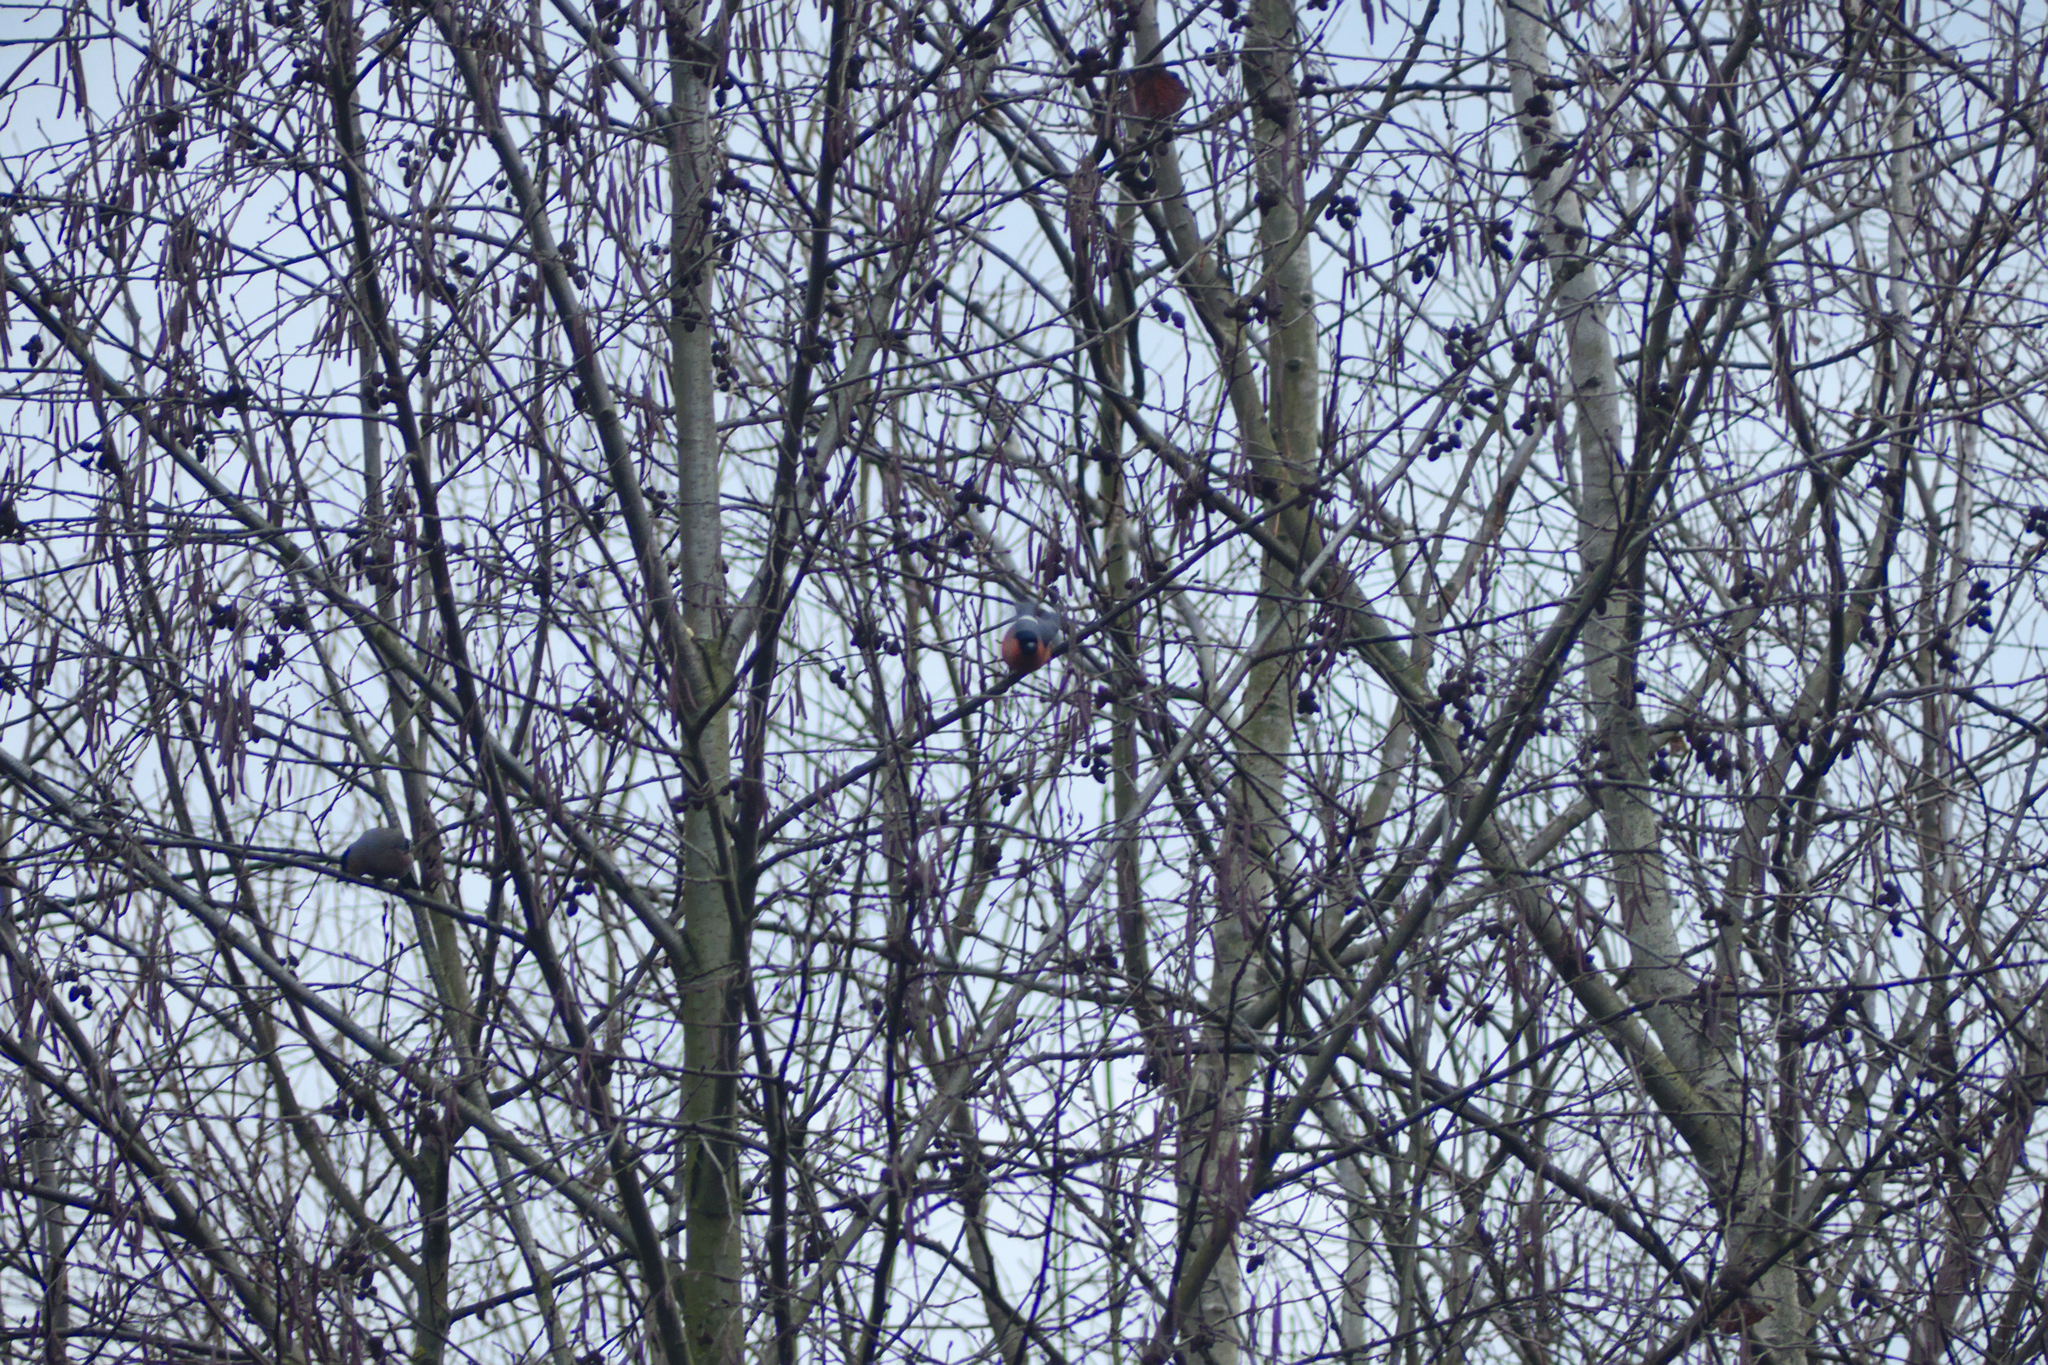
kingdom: Animalia
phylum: Chordata
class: Aves
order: Passeriformes
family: Fringillidae
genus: Pyrrhula
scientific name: Pyrrhula pyrrhula
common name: Eurasian bullfinch
